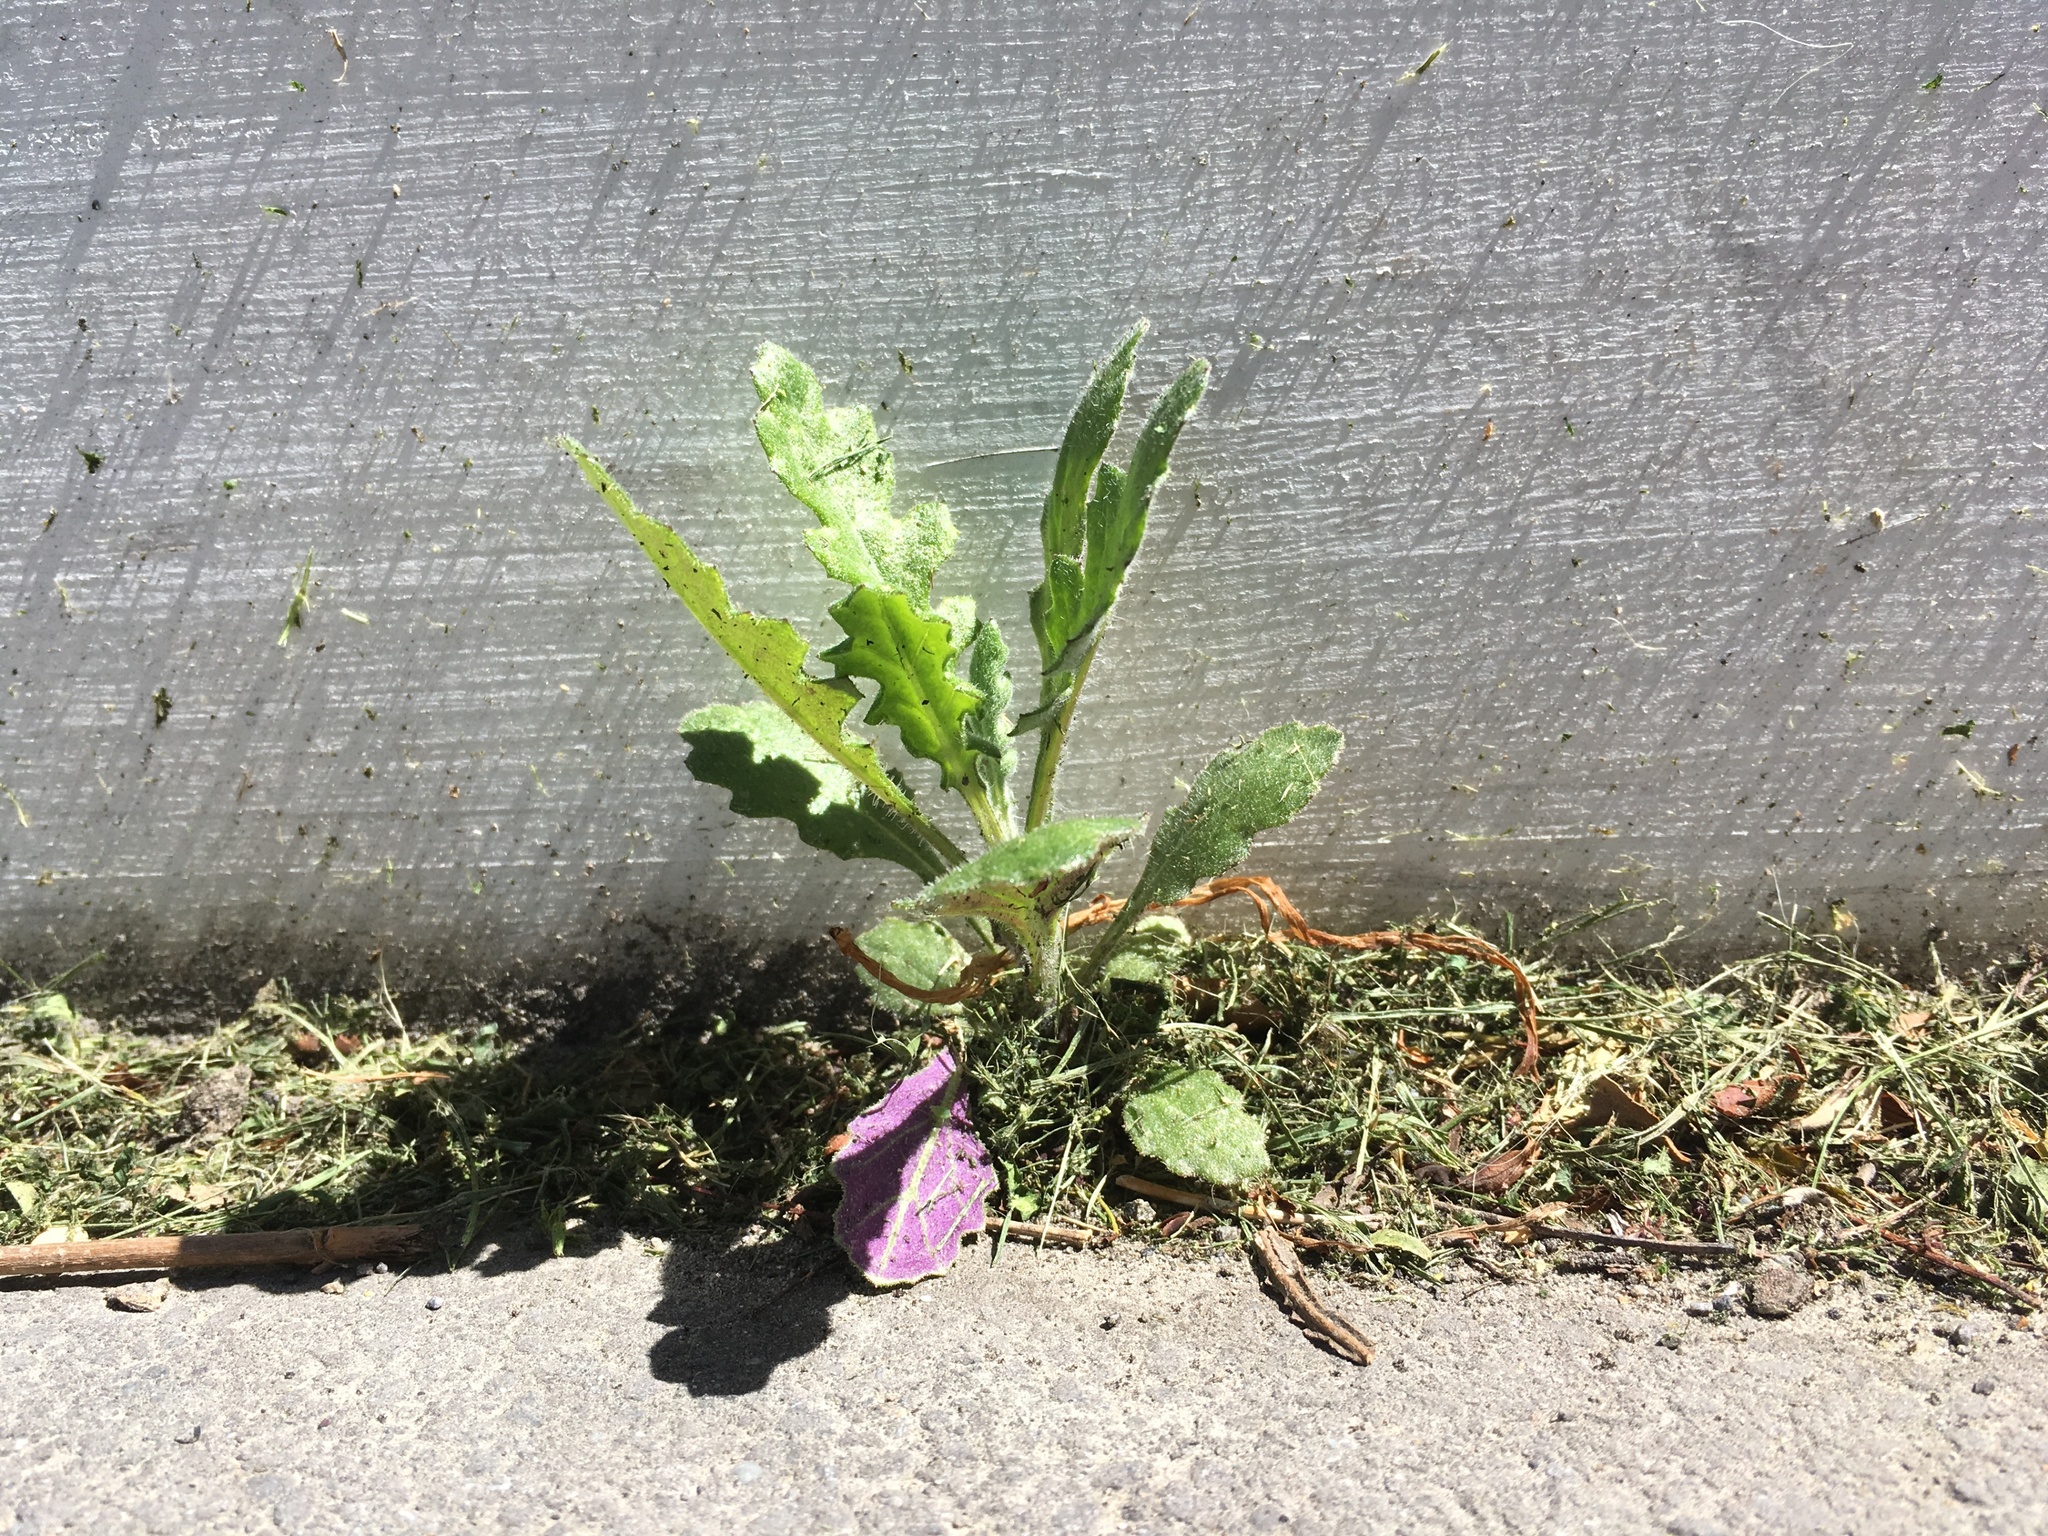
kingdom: Plantae
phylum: Tracheophyta
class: Magnoliopsida
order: Asterales
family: Asteraceae
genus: Senecio
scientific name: Senecio glomeratus
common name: Cutleaf burnweed
